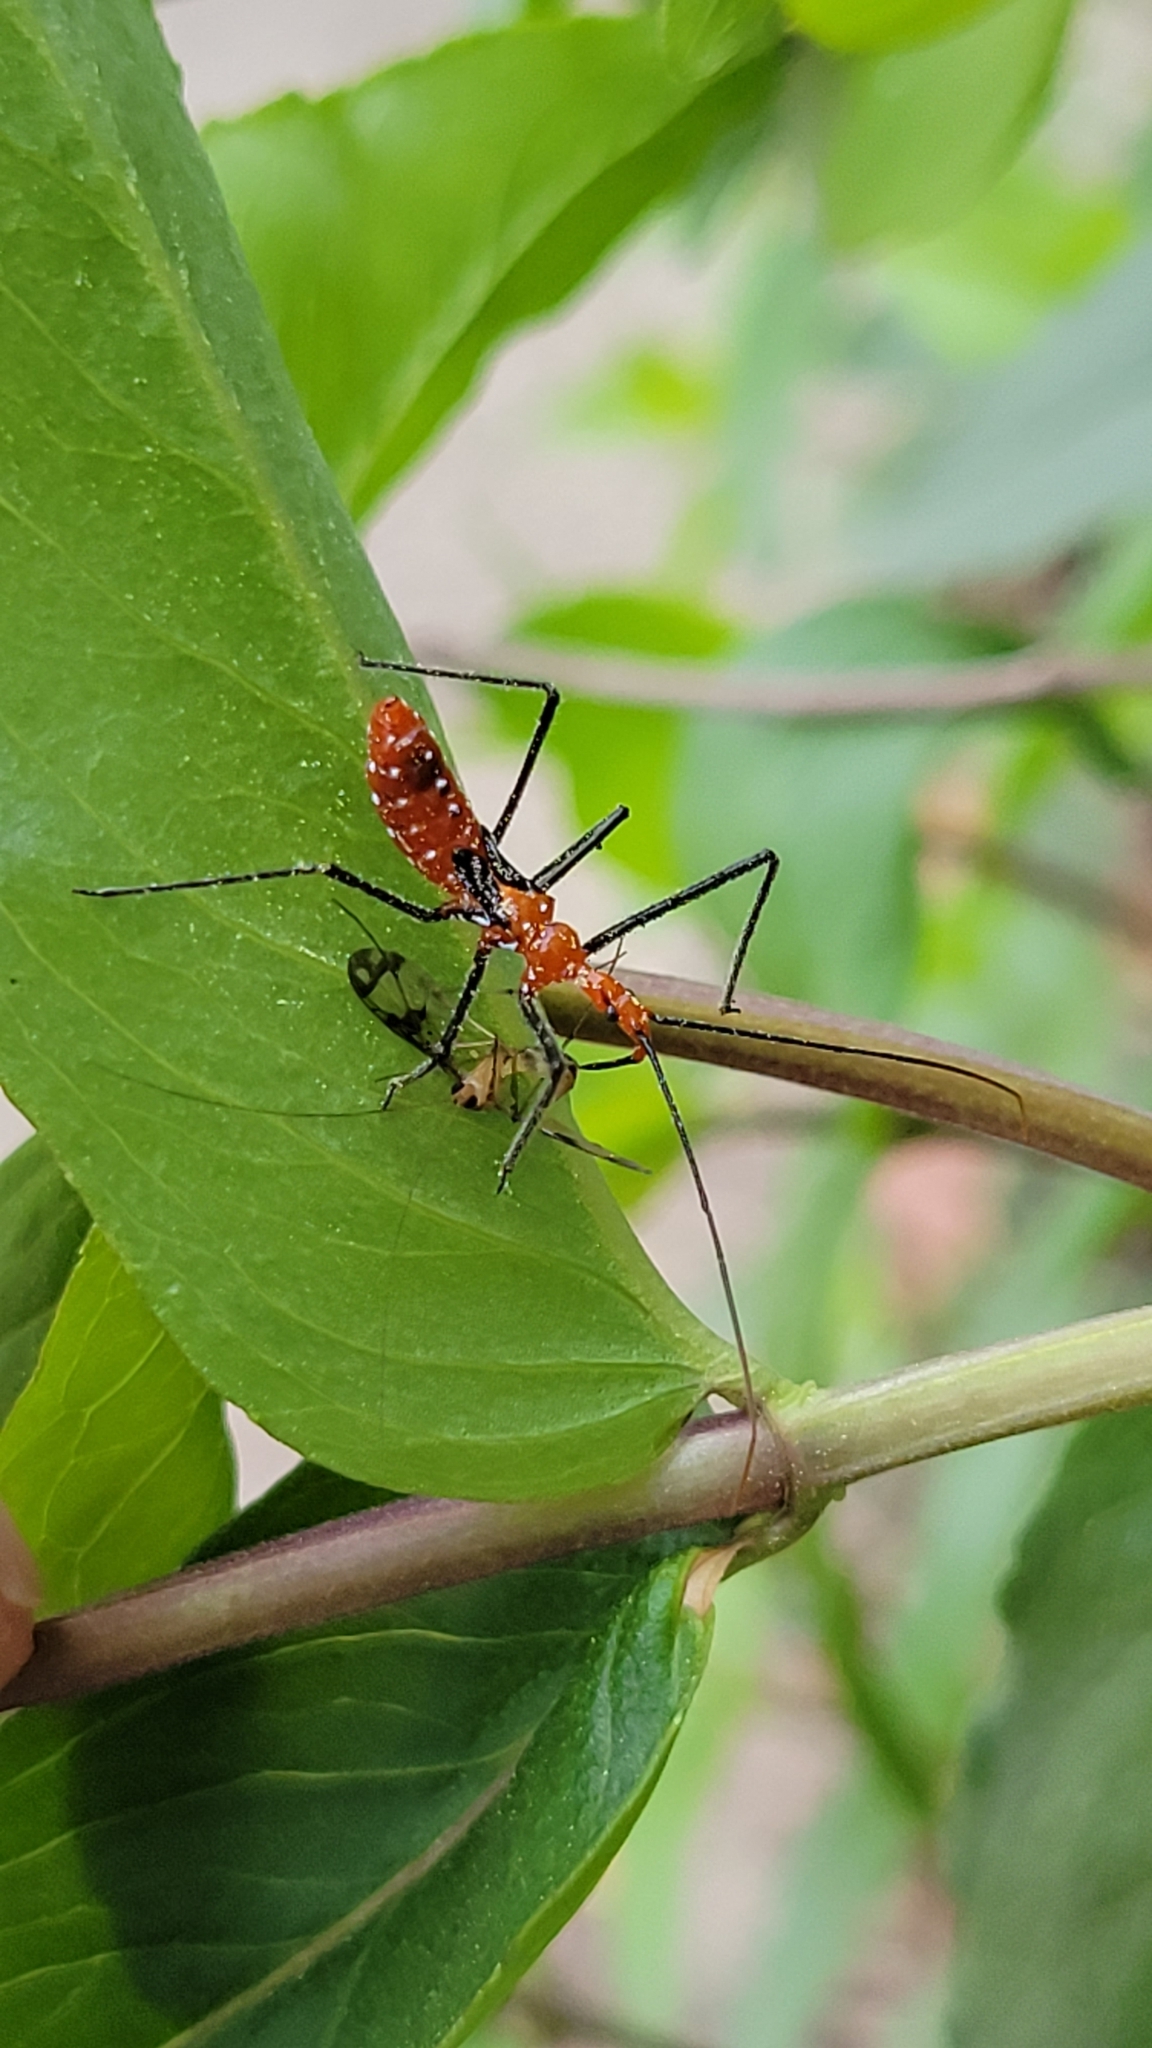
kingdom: Animalia
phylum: Arthropoda
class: Insecta
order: Hemiptera
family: Reduviidae
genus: Zelus
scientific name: Zelus longipes
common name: Milkweed assassin bug
